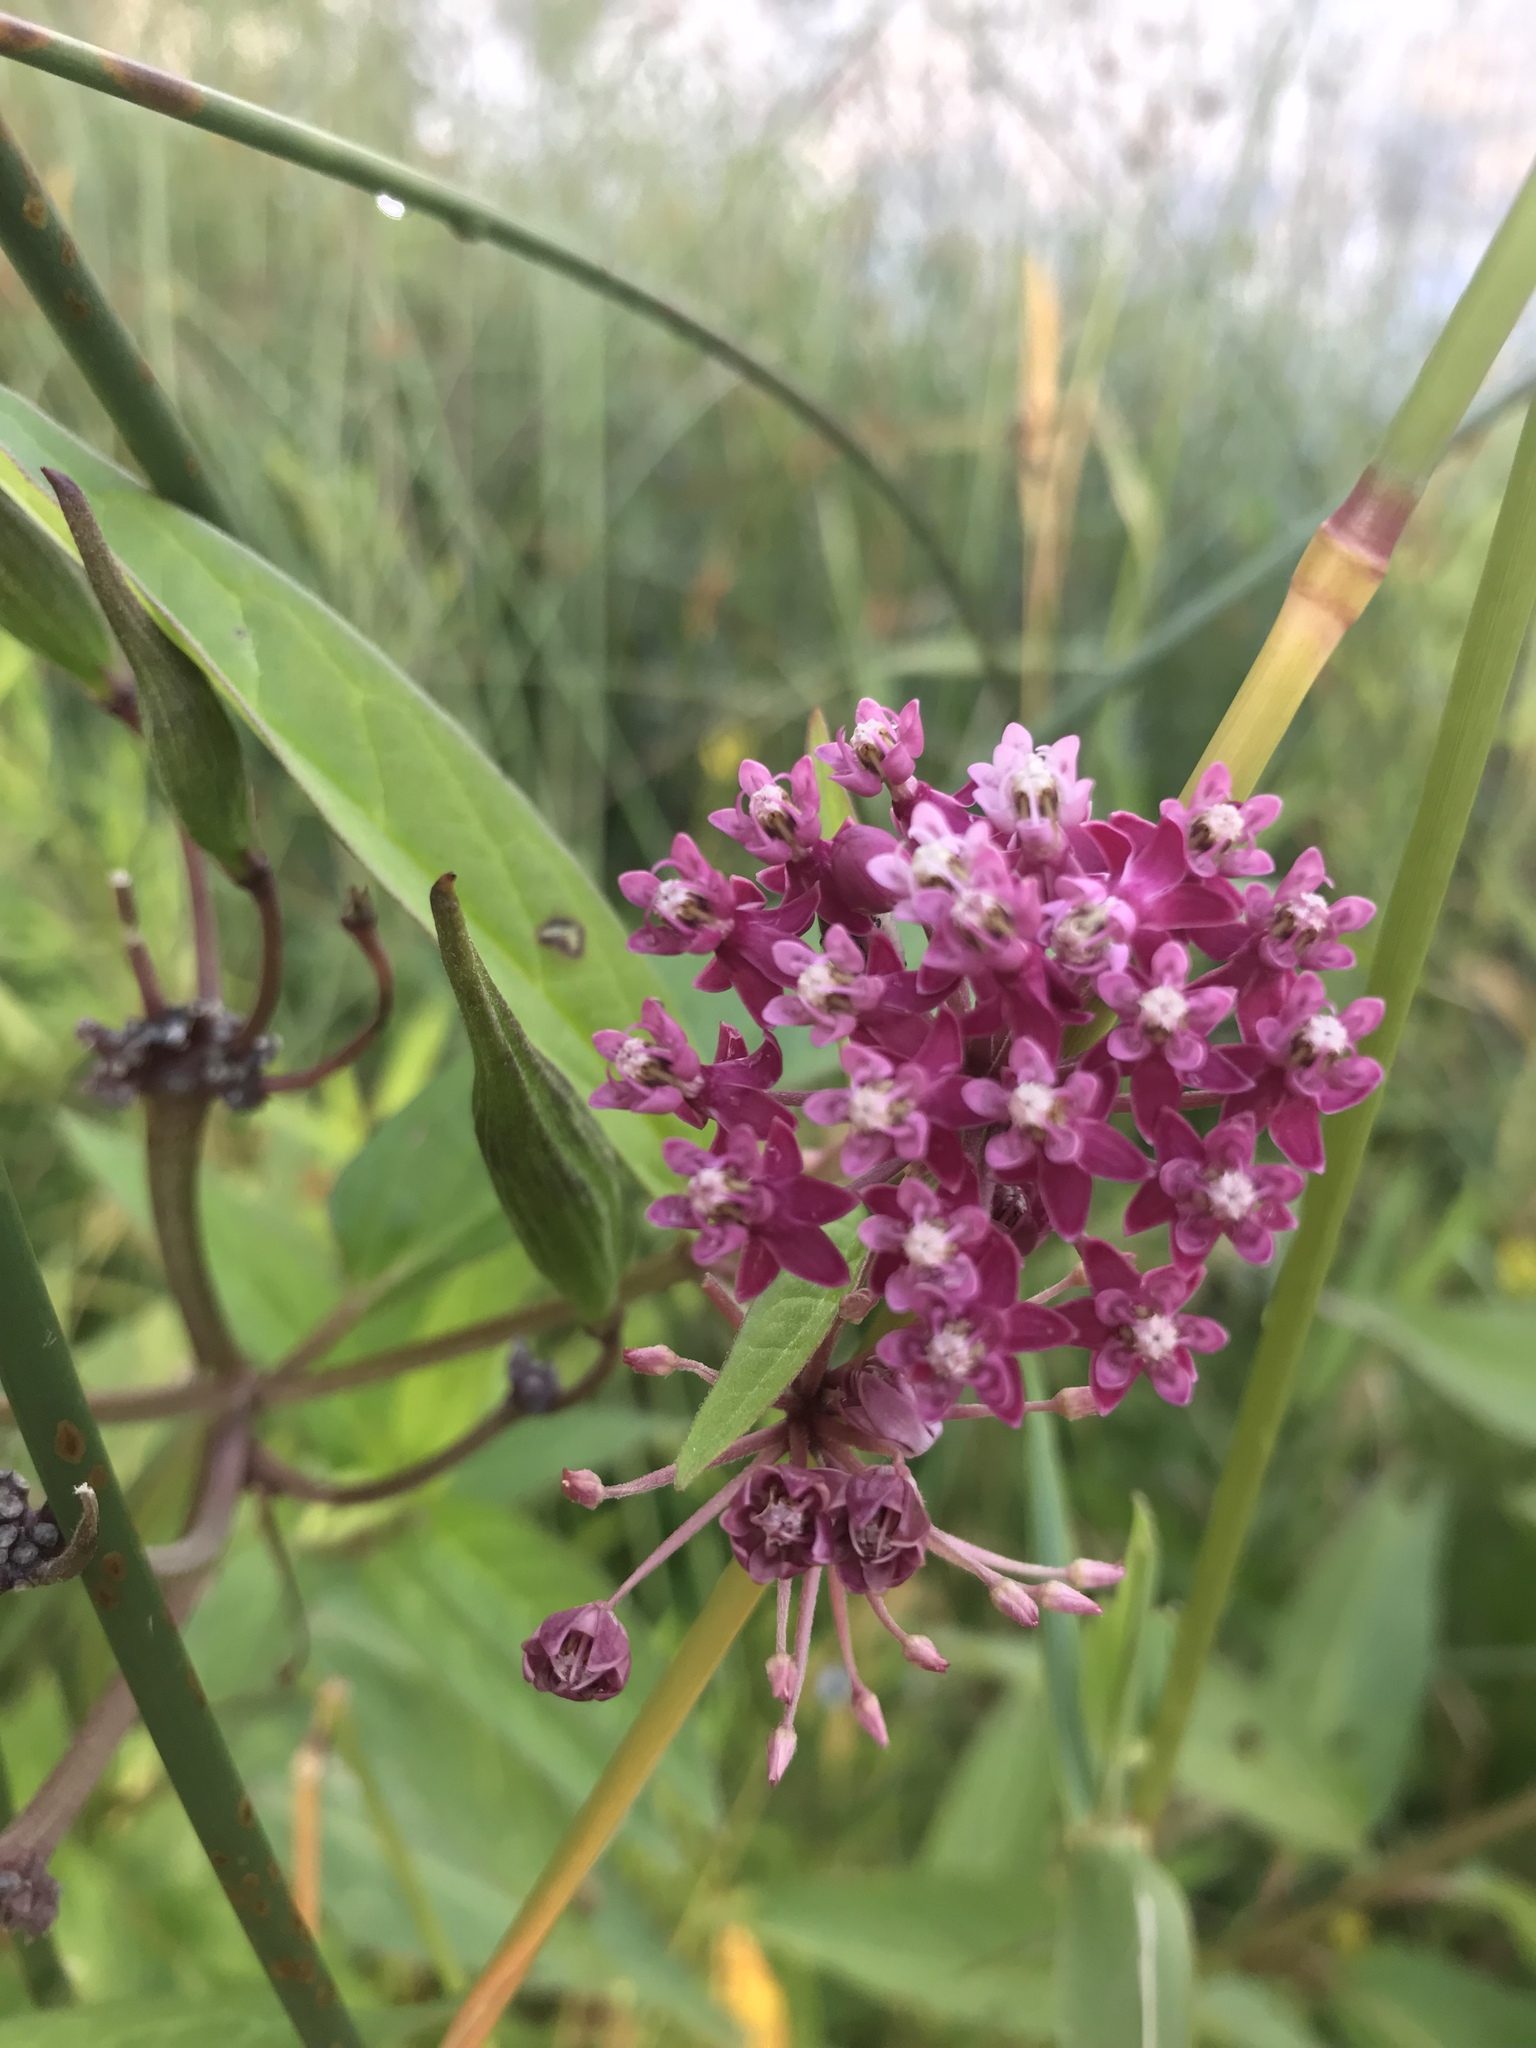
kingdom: Plantae
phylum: Tracheophyta
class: Magnoliopsida
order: Gentianales
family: Apocynaceae
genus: Asclepias
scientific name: Asclepias incarnata
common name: Swamp milkweed
